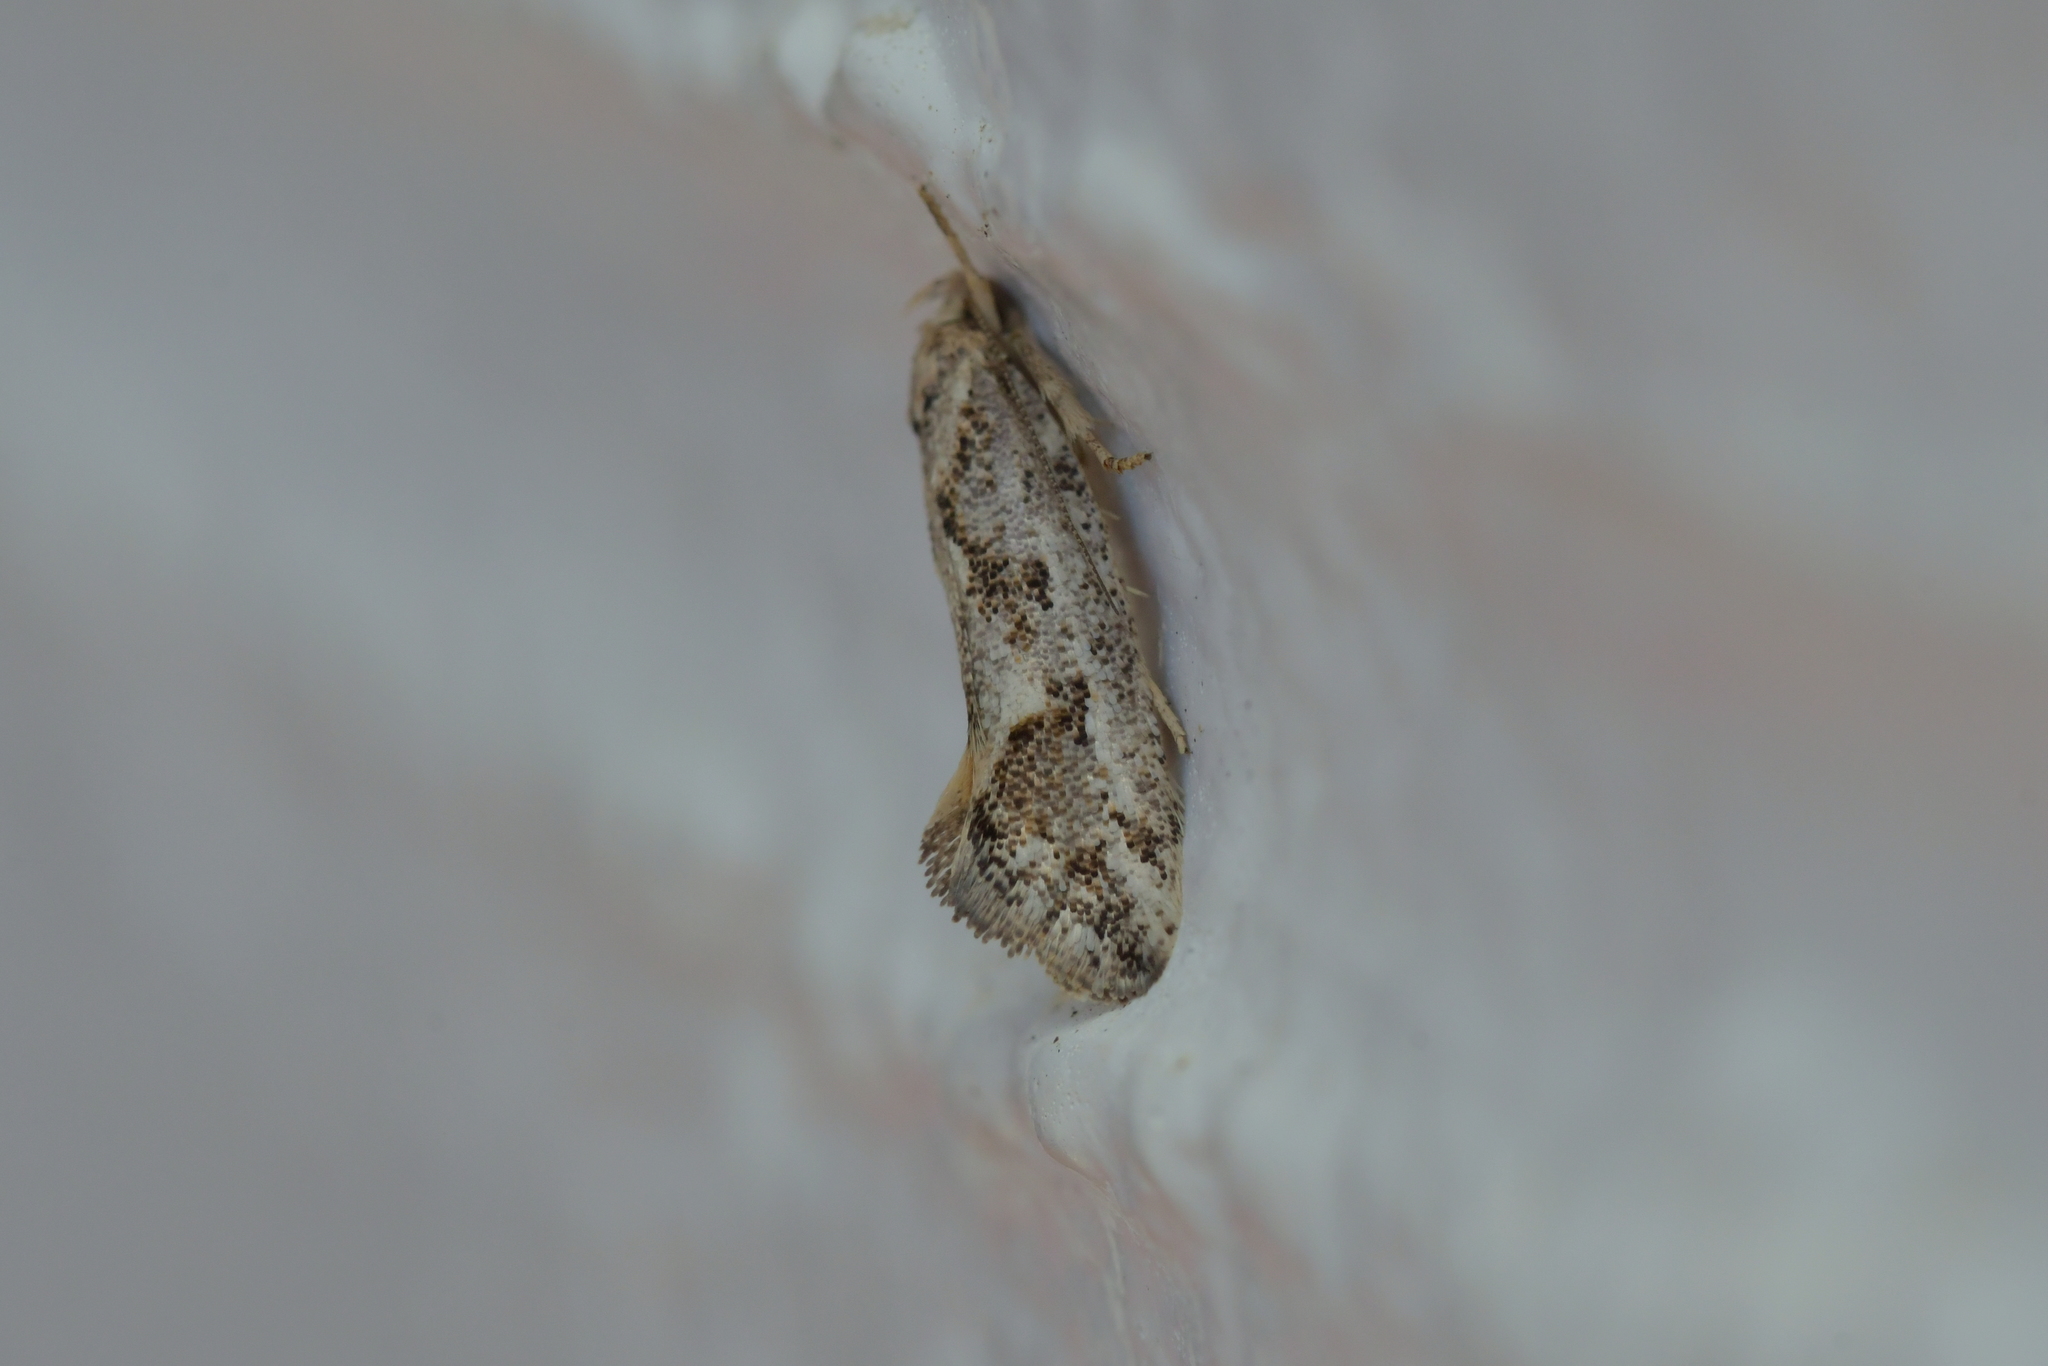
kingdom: Animalia
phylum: Arthropoda
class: Insecta
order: Lepidoptera
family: Oecophoridae
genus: Tingena
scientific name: Tingena hemimochla
